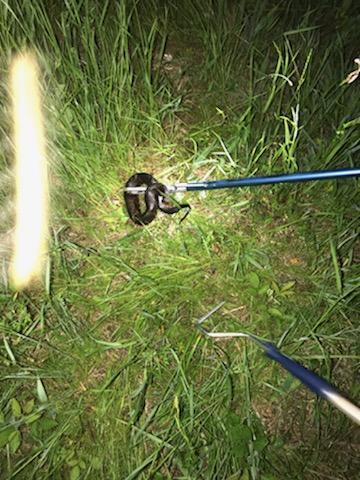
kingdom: Animalia
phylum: Chordata
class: Squamata
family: Viperidae
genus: Agkistrodon
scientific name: Agkistrodon piscivorus
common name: Cottonmouth
